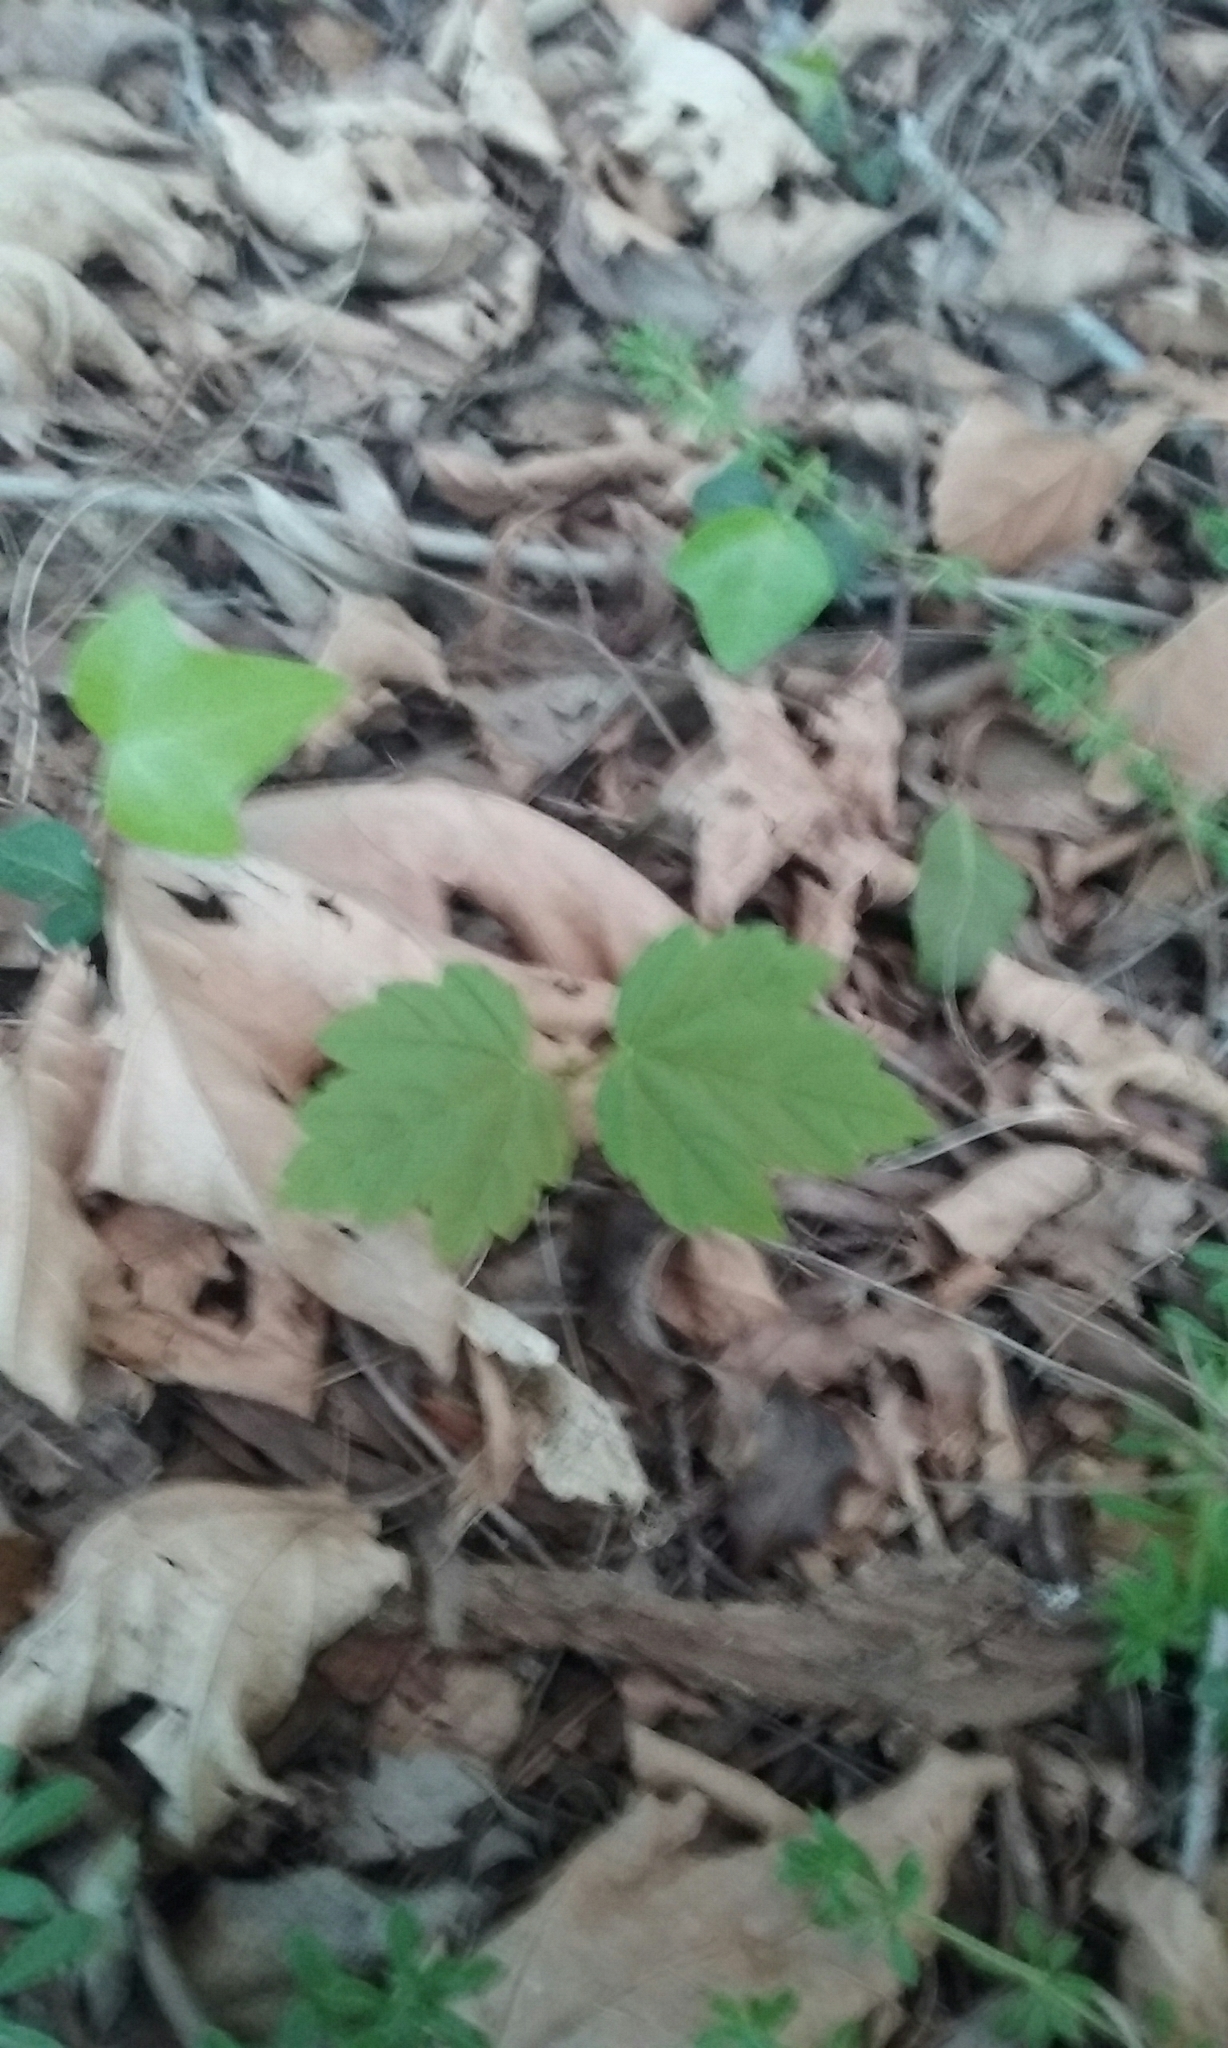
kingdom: Plantae
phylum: Tracheophyta
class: Magnoliopsida
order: Sapindales
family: Sapindaceae
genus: Acer
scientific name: Acer pseudoplatanus
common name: Sycamore
